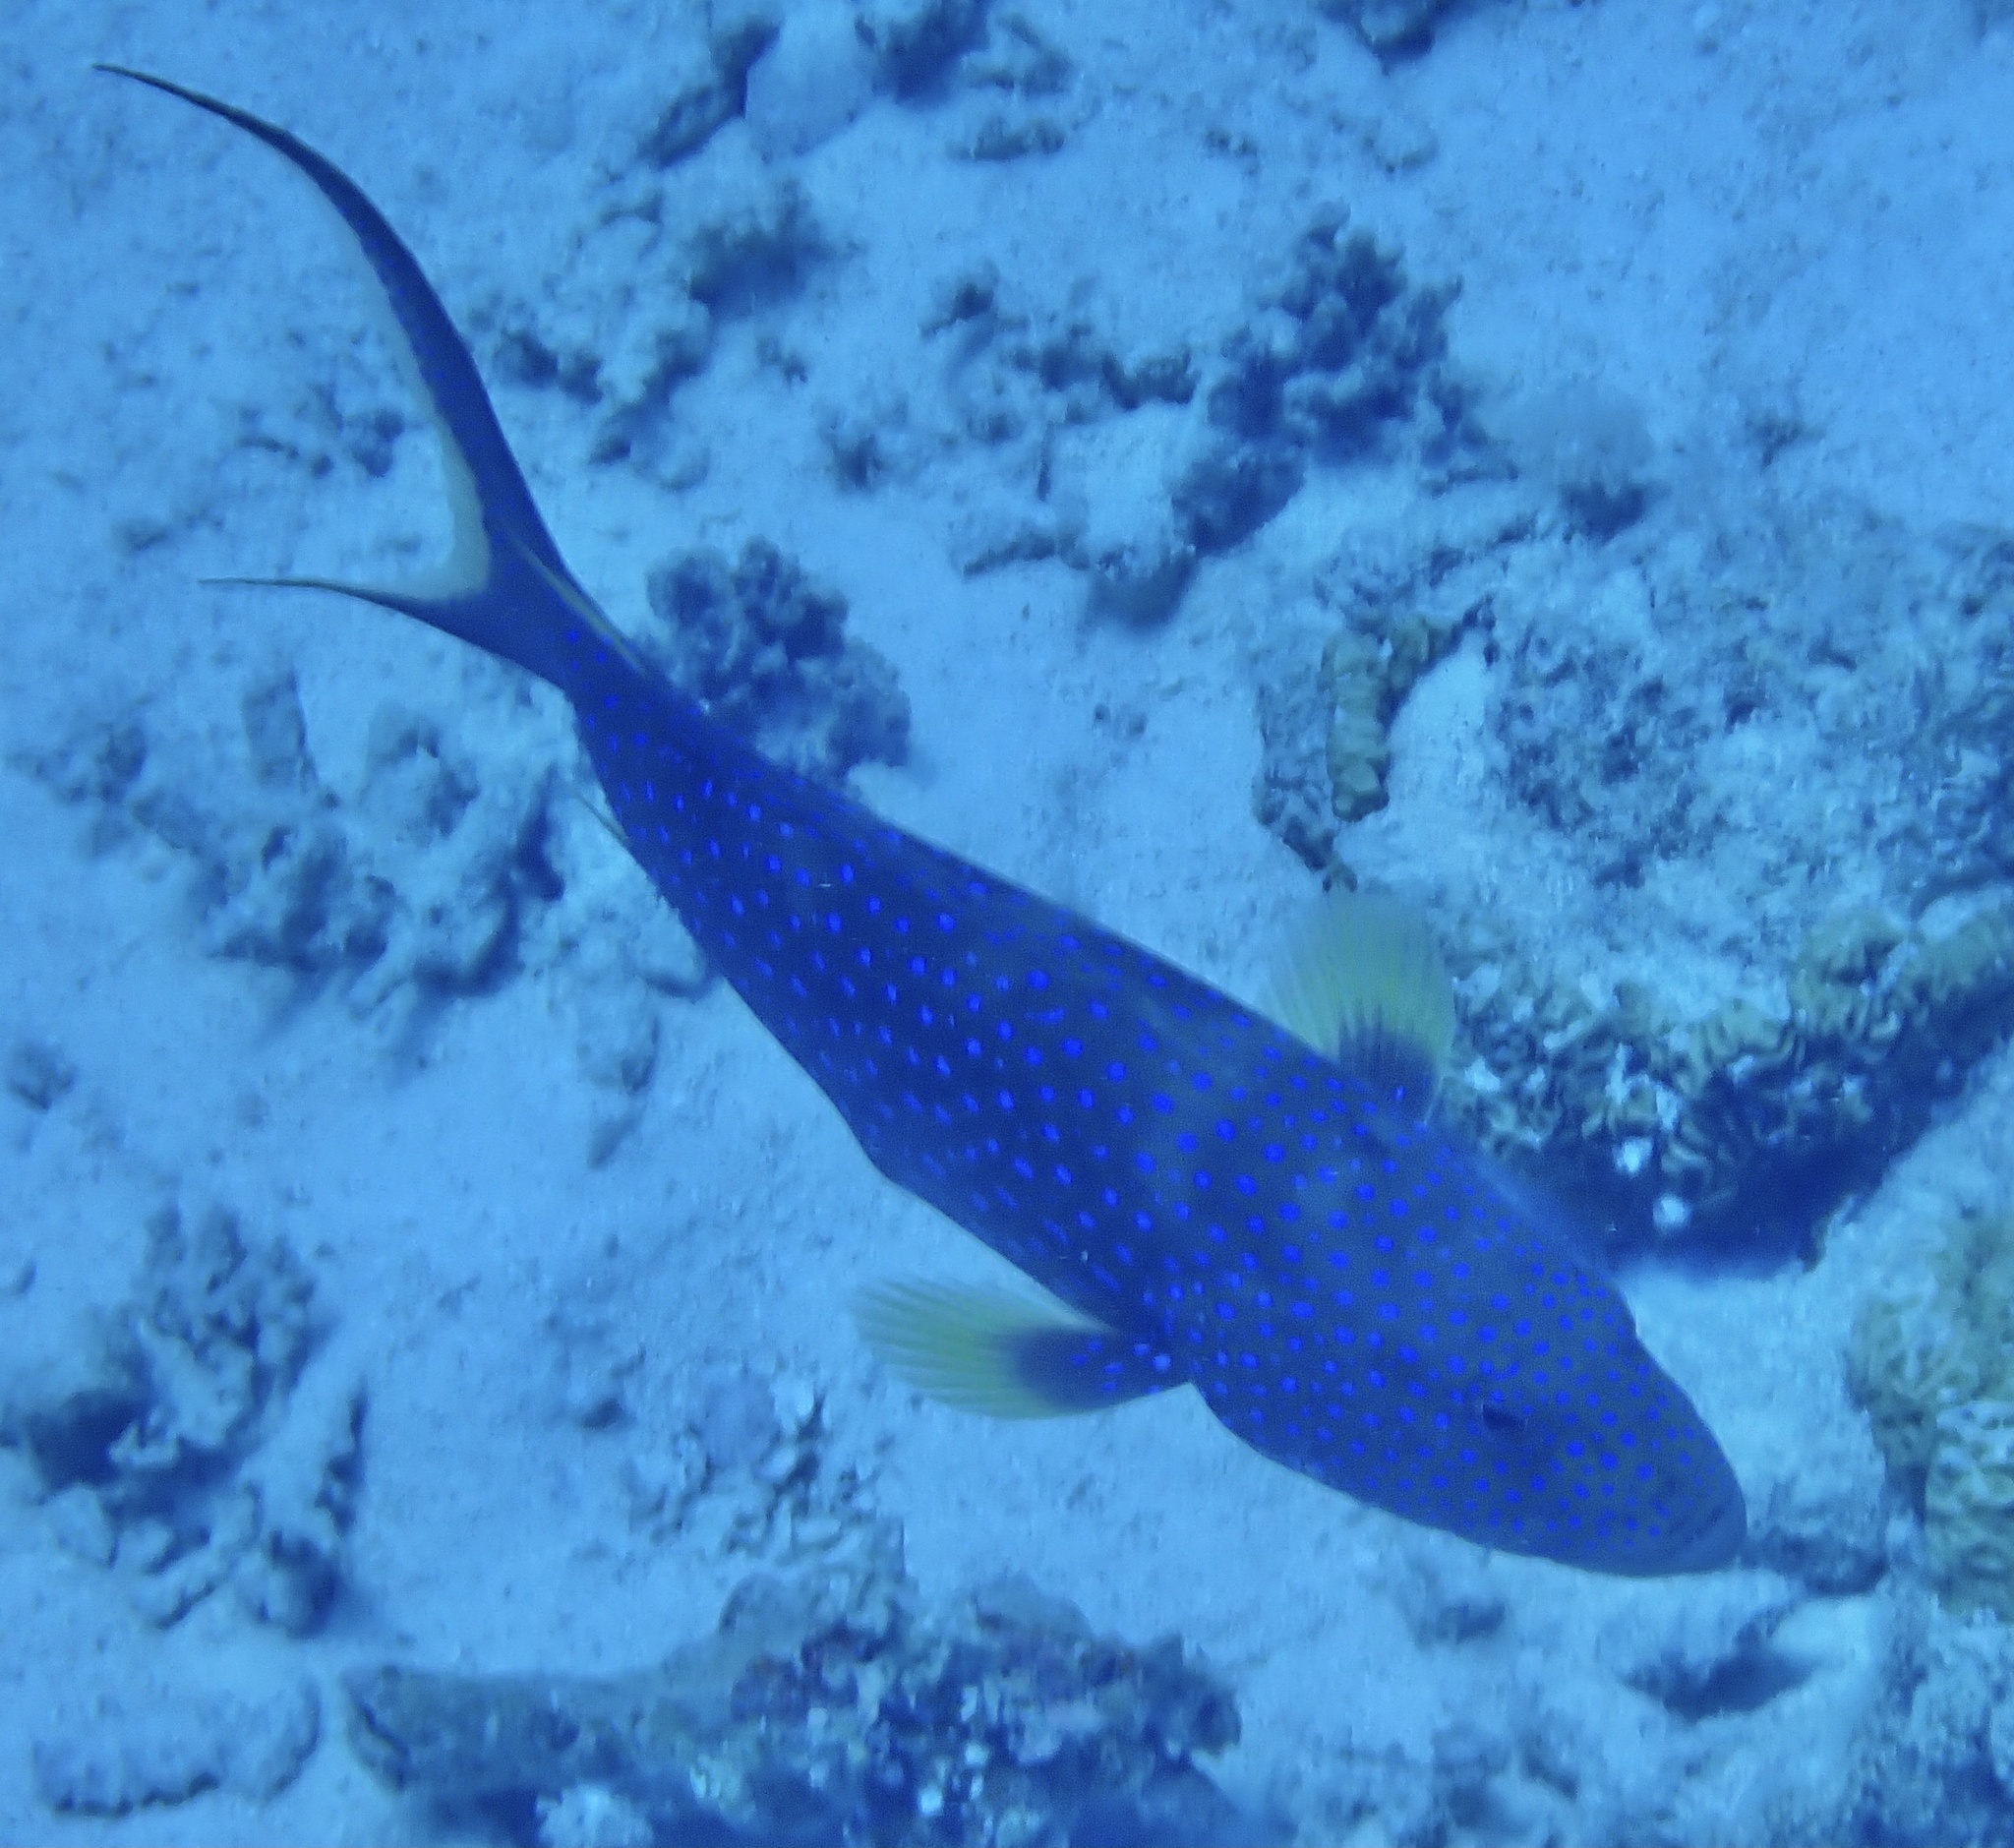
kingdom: Animalia
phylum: Chordata
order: Perciformes
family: Serranidae
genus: Variola
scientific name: Variola louti
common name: Yellow-edged lyretail
